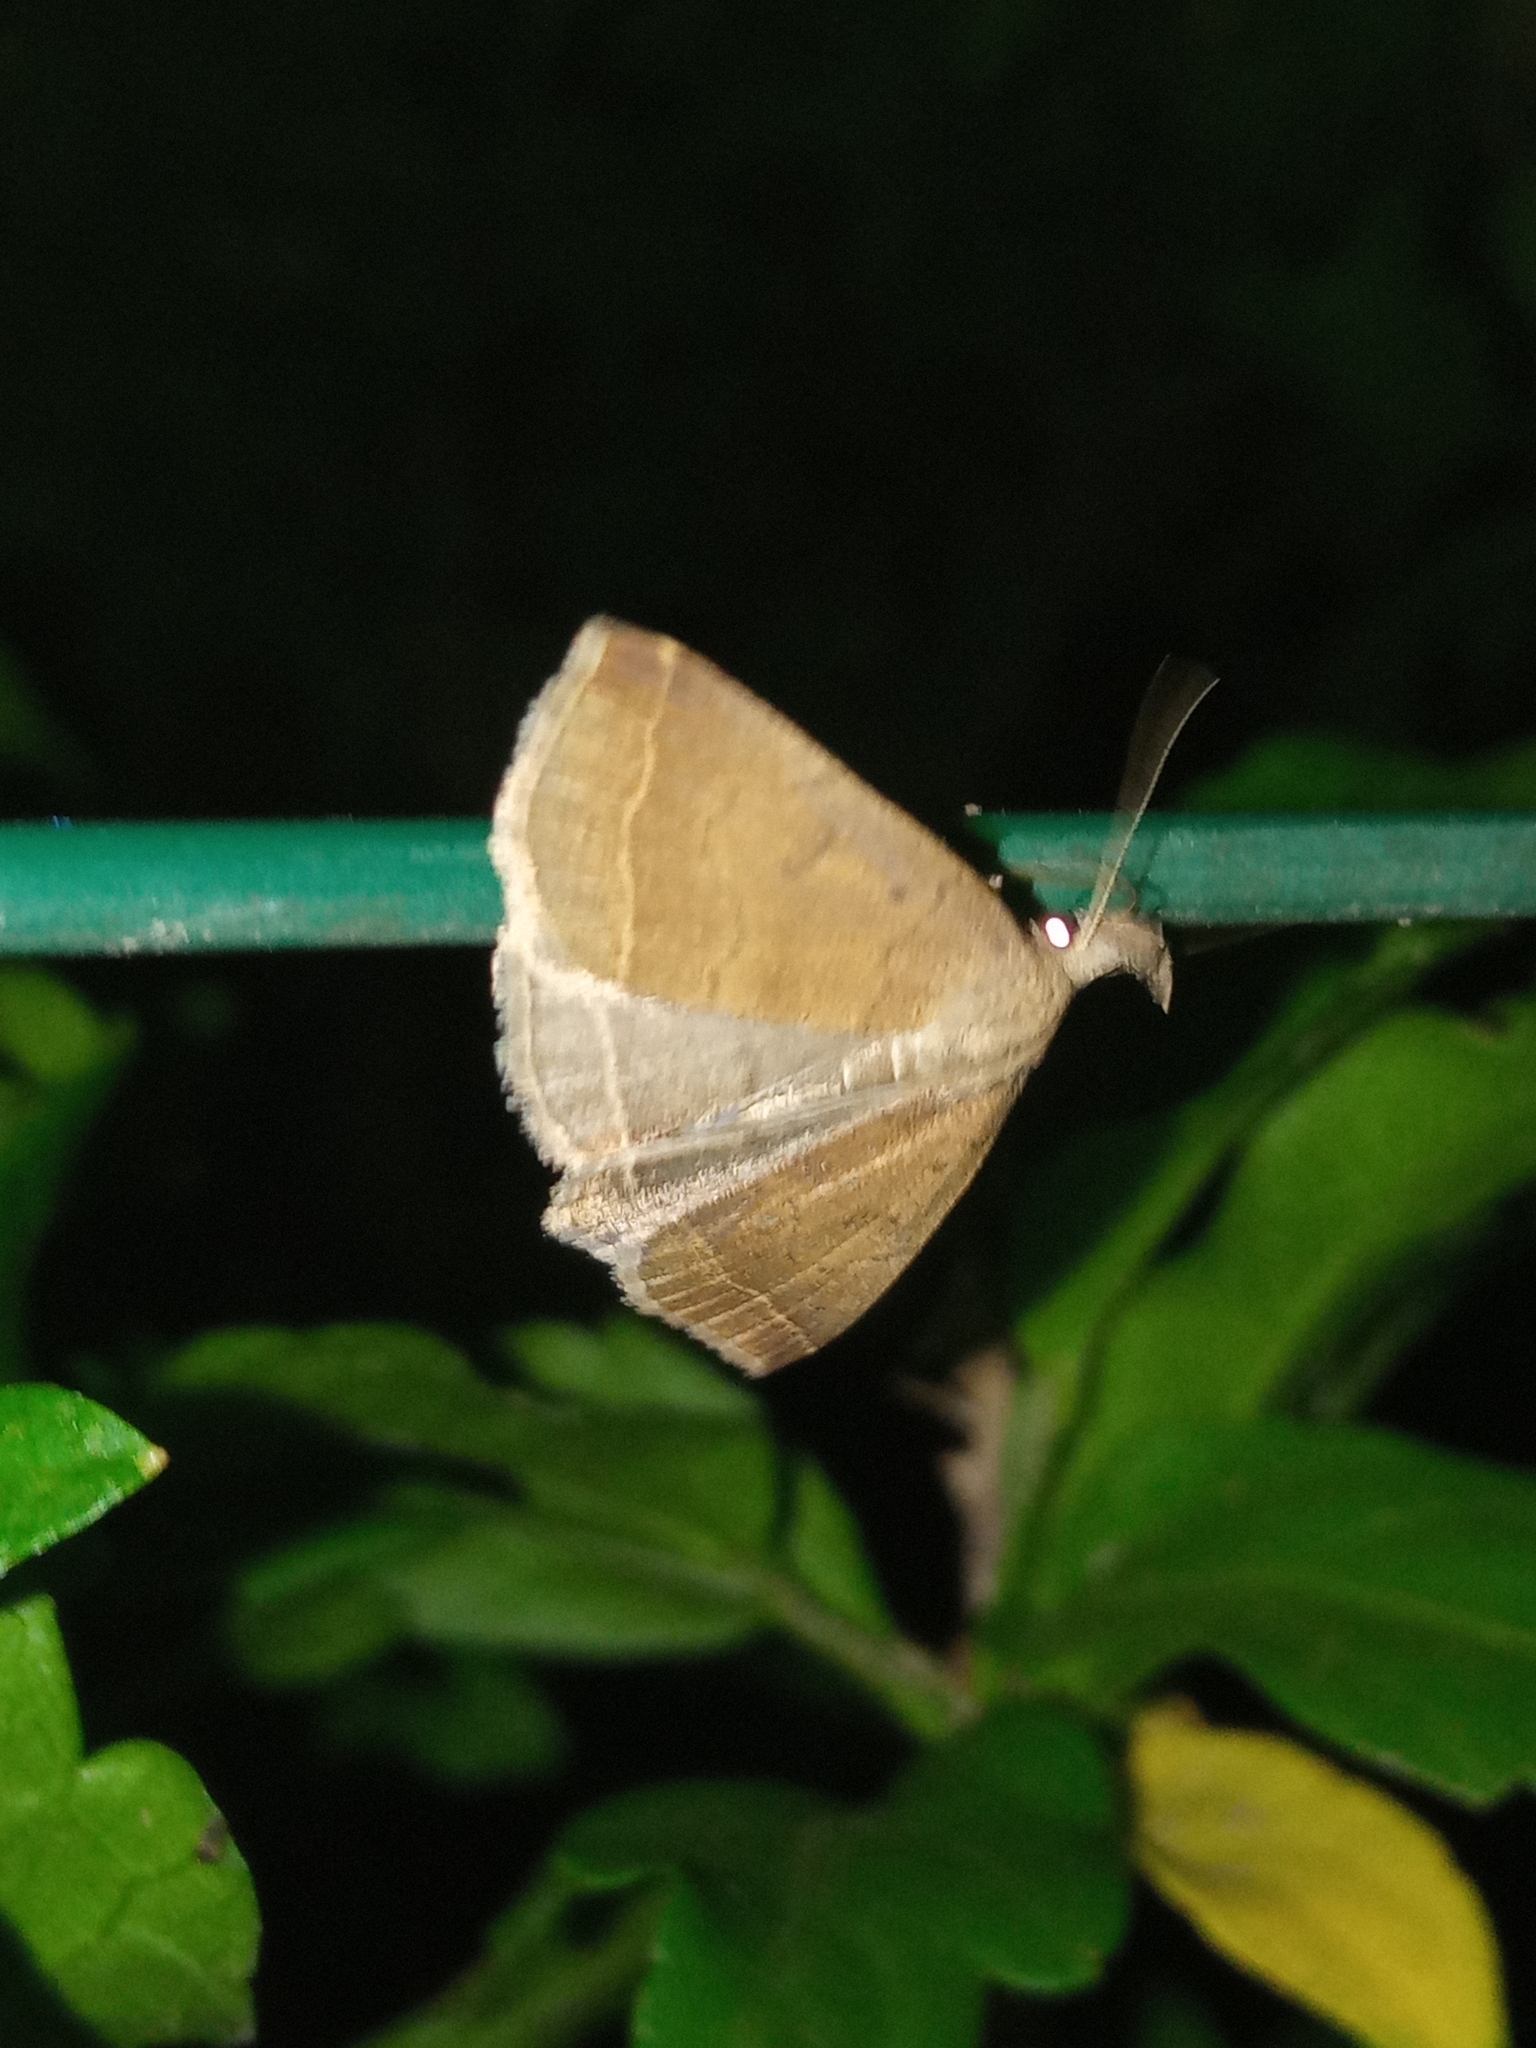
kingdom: Animalia
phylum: Arthropoda
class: Insecta
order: Lepidoptera
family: Erebidae
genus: Pechipogo
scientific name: Pechipogo plumigeralis
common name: Plumed fan-foot
